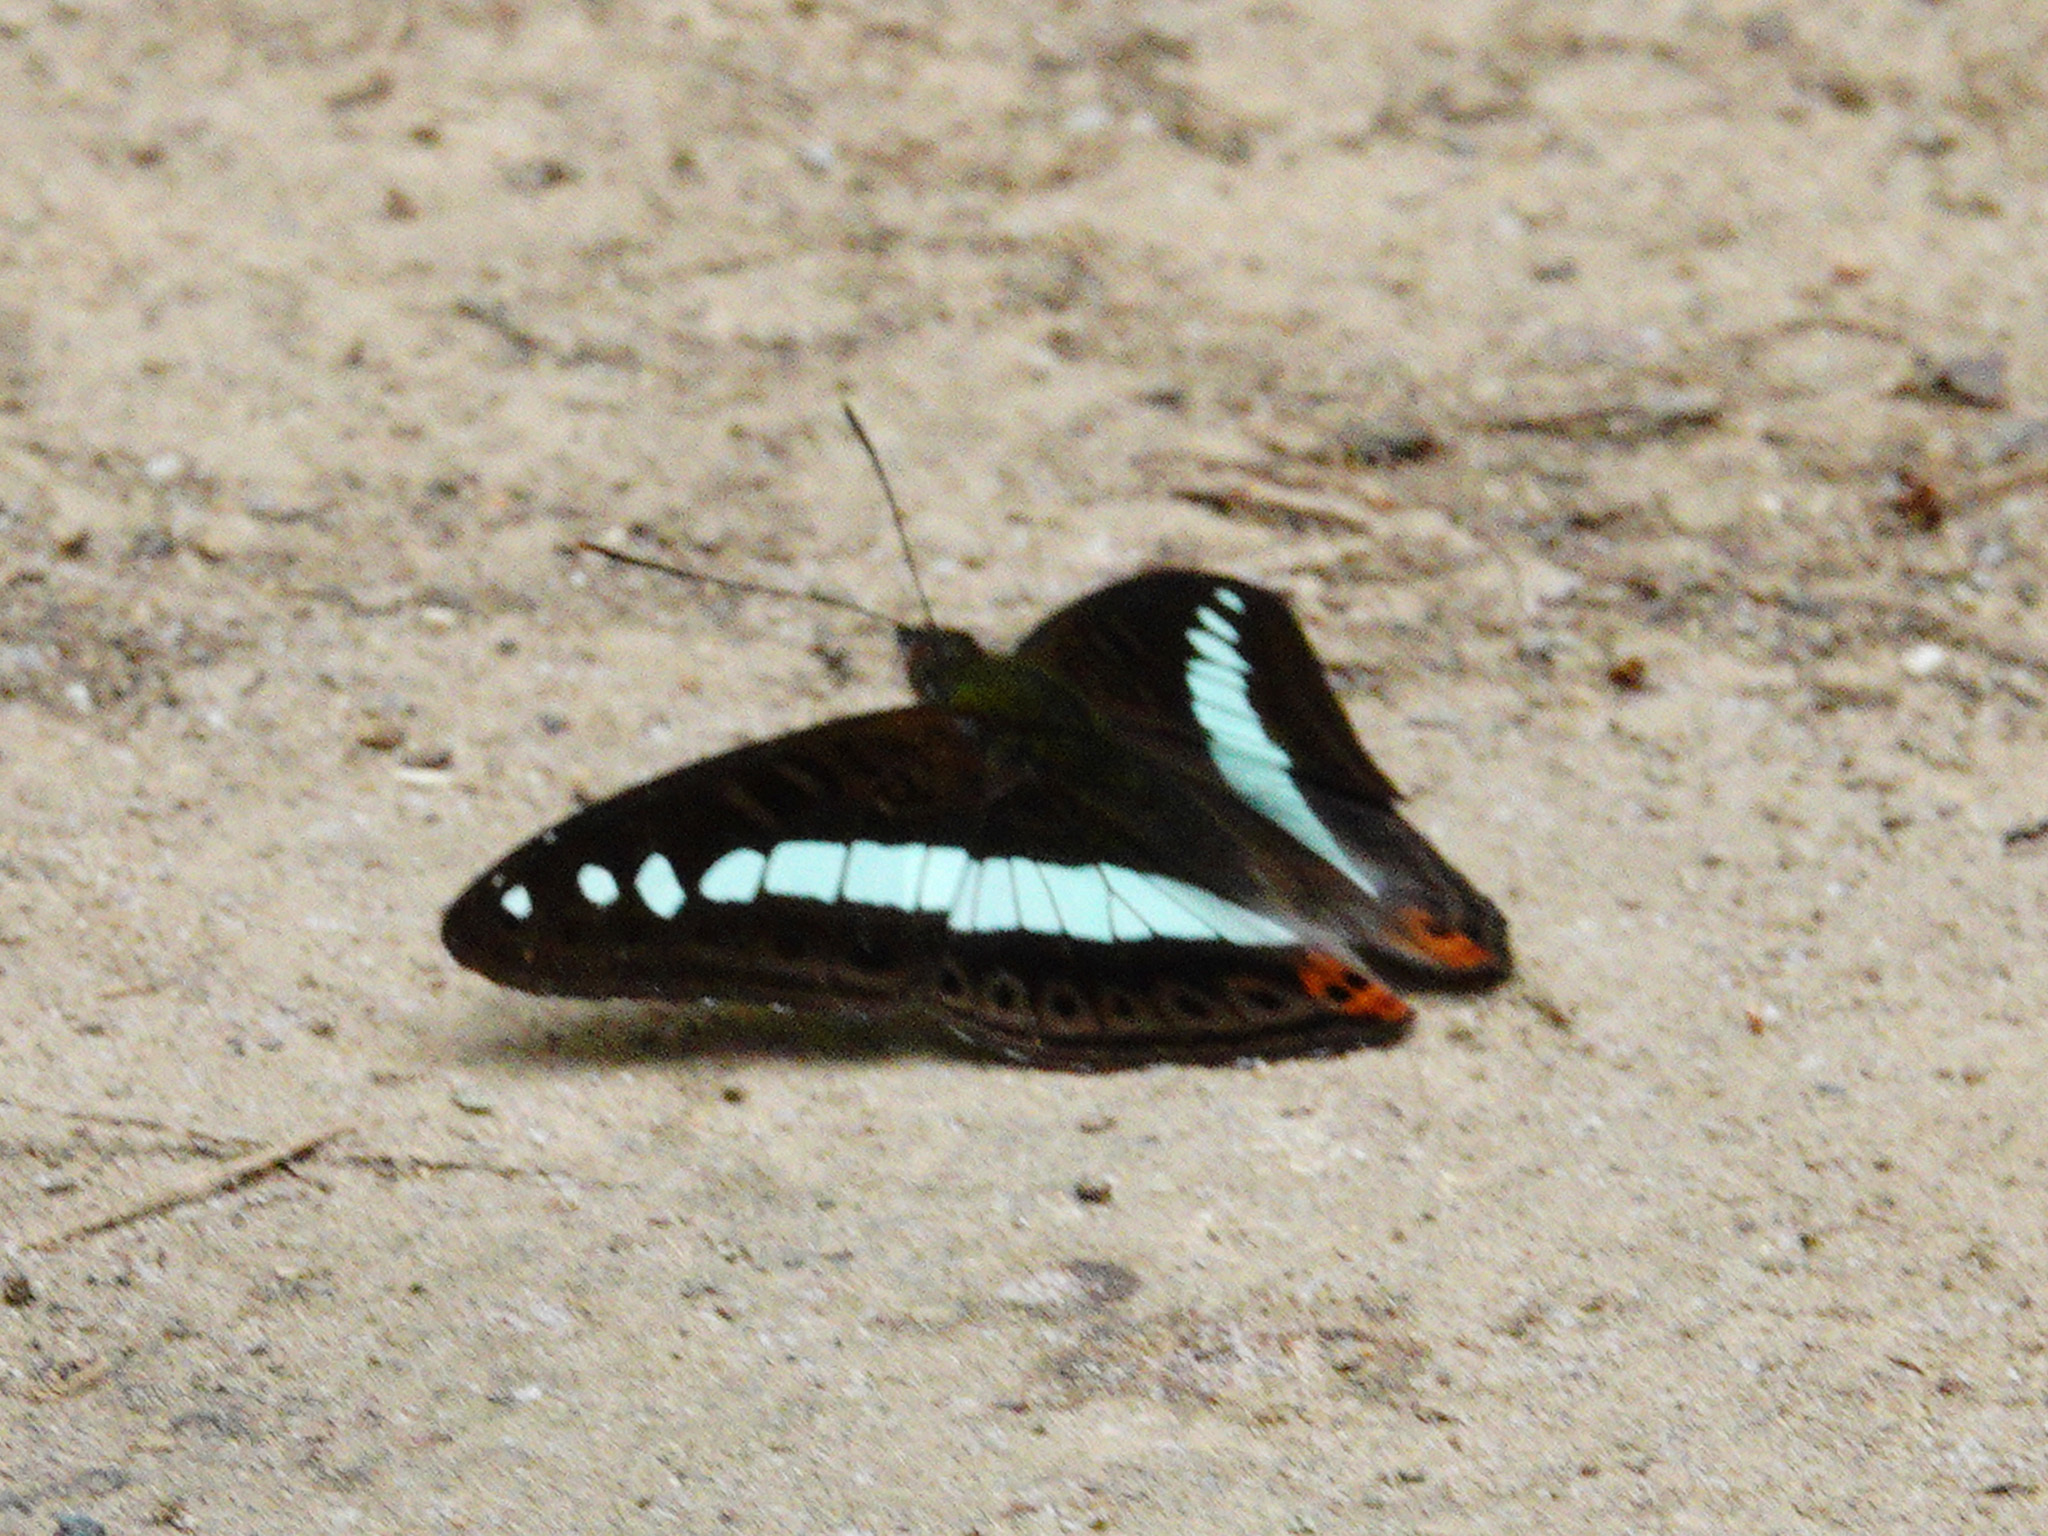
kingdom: Animalia
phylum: Arthropoda
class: Insecta
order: Lepidoptera
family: Nymphalidae
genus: Limenitis
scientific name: Limenitis Sumalia daraxa
